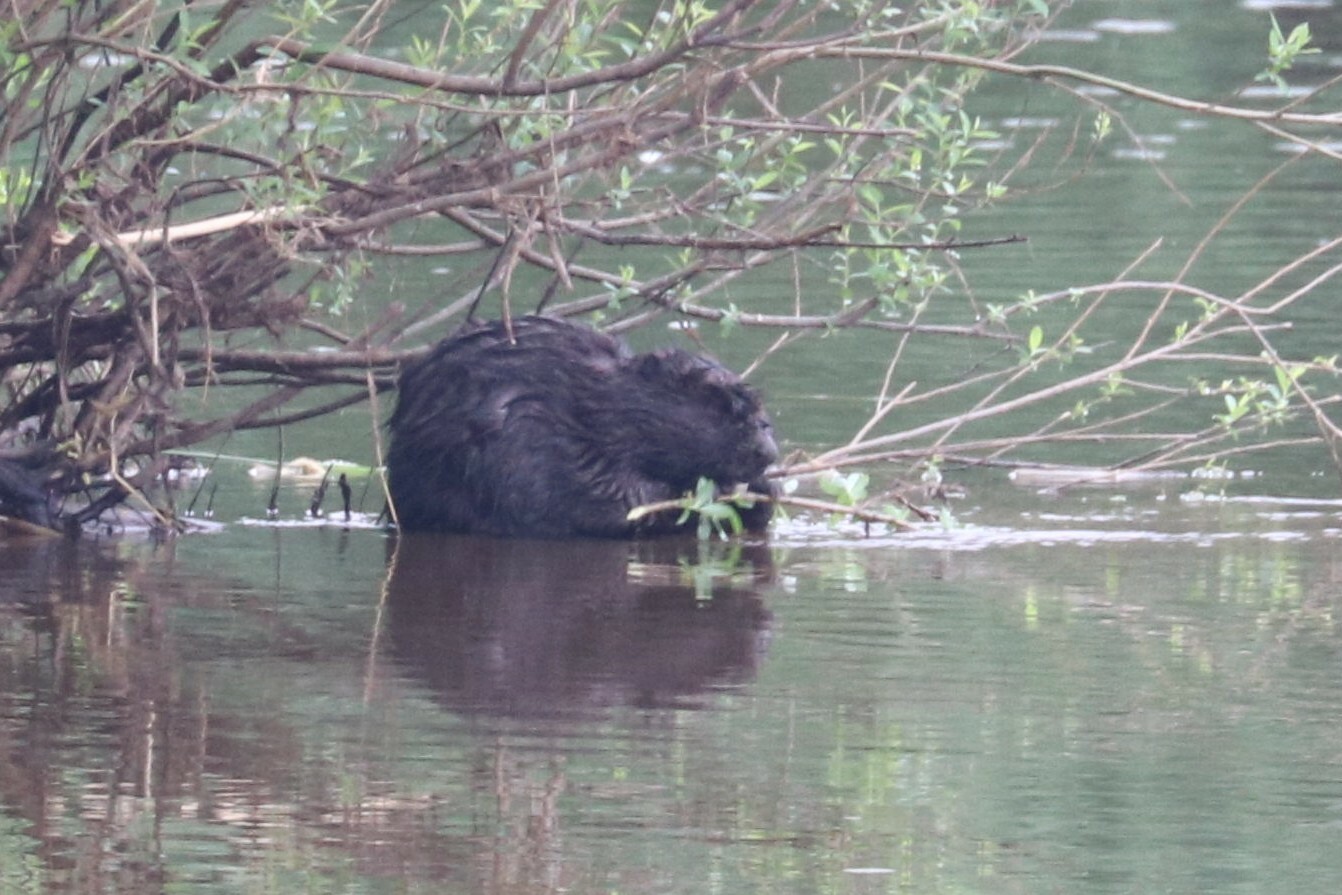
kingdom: Animalia
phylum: Chordata
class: Mammalia
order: Rodentia
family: Castoridae
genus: Castor
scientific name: Castor fiber
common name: Eurasian beaver
